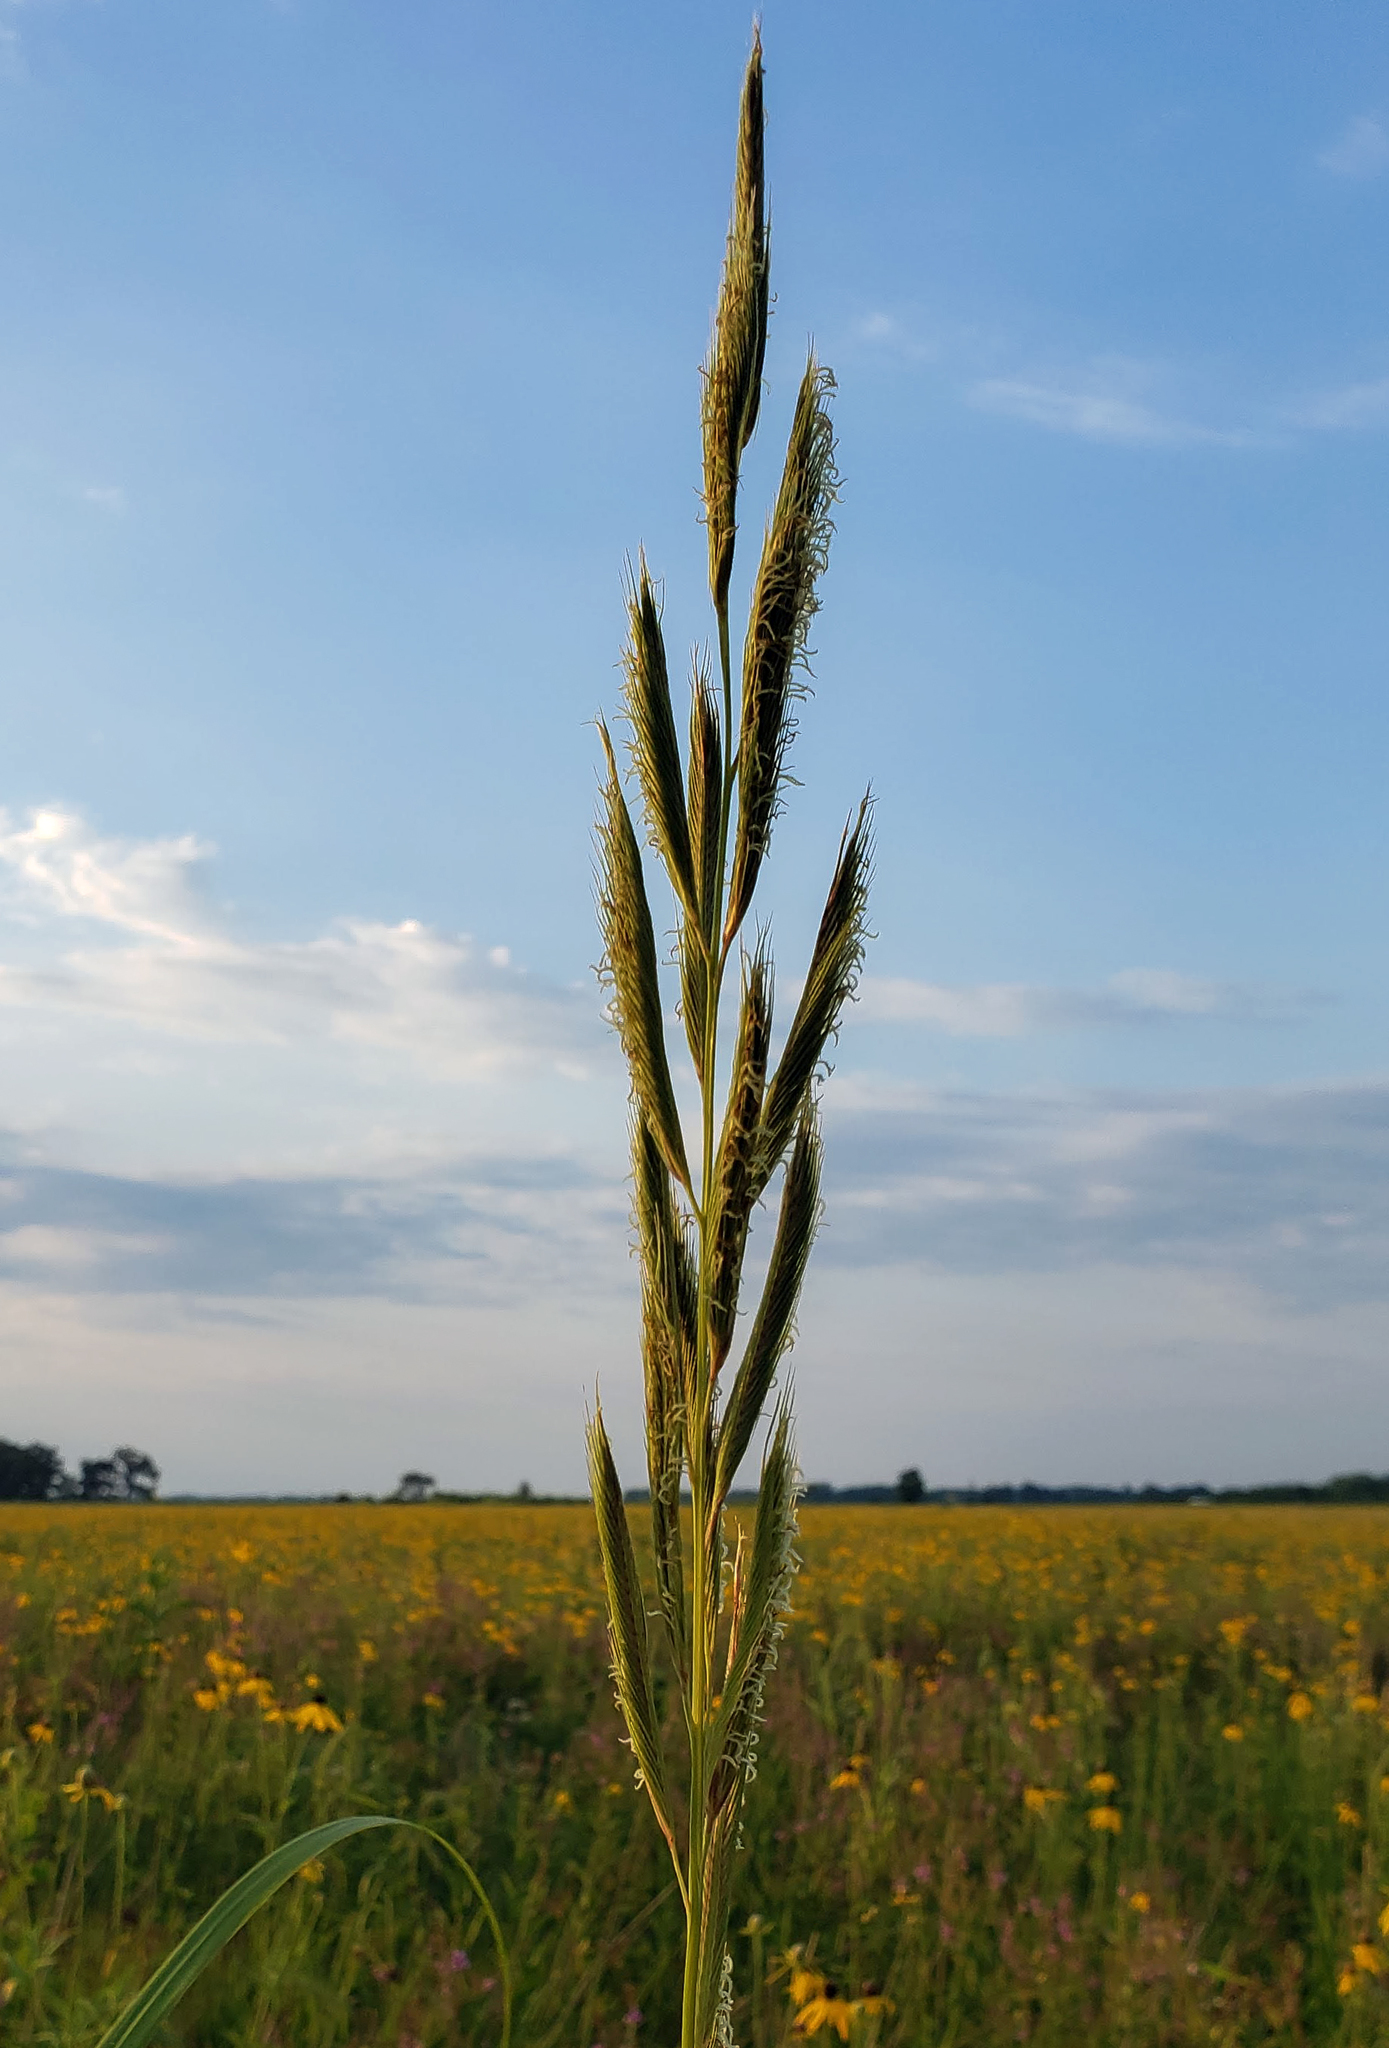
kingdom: Plantae
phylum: Tracheophyta
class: Liliopsida
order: Poales
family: Poaceae
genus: Sporobolus
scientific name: Sporobolus michauxianus
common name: Freshwater cordgrass
